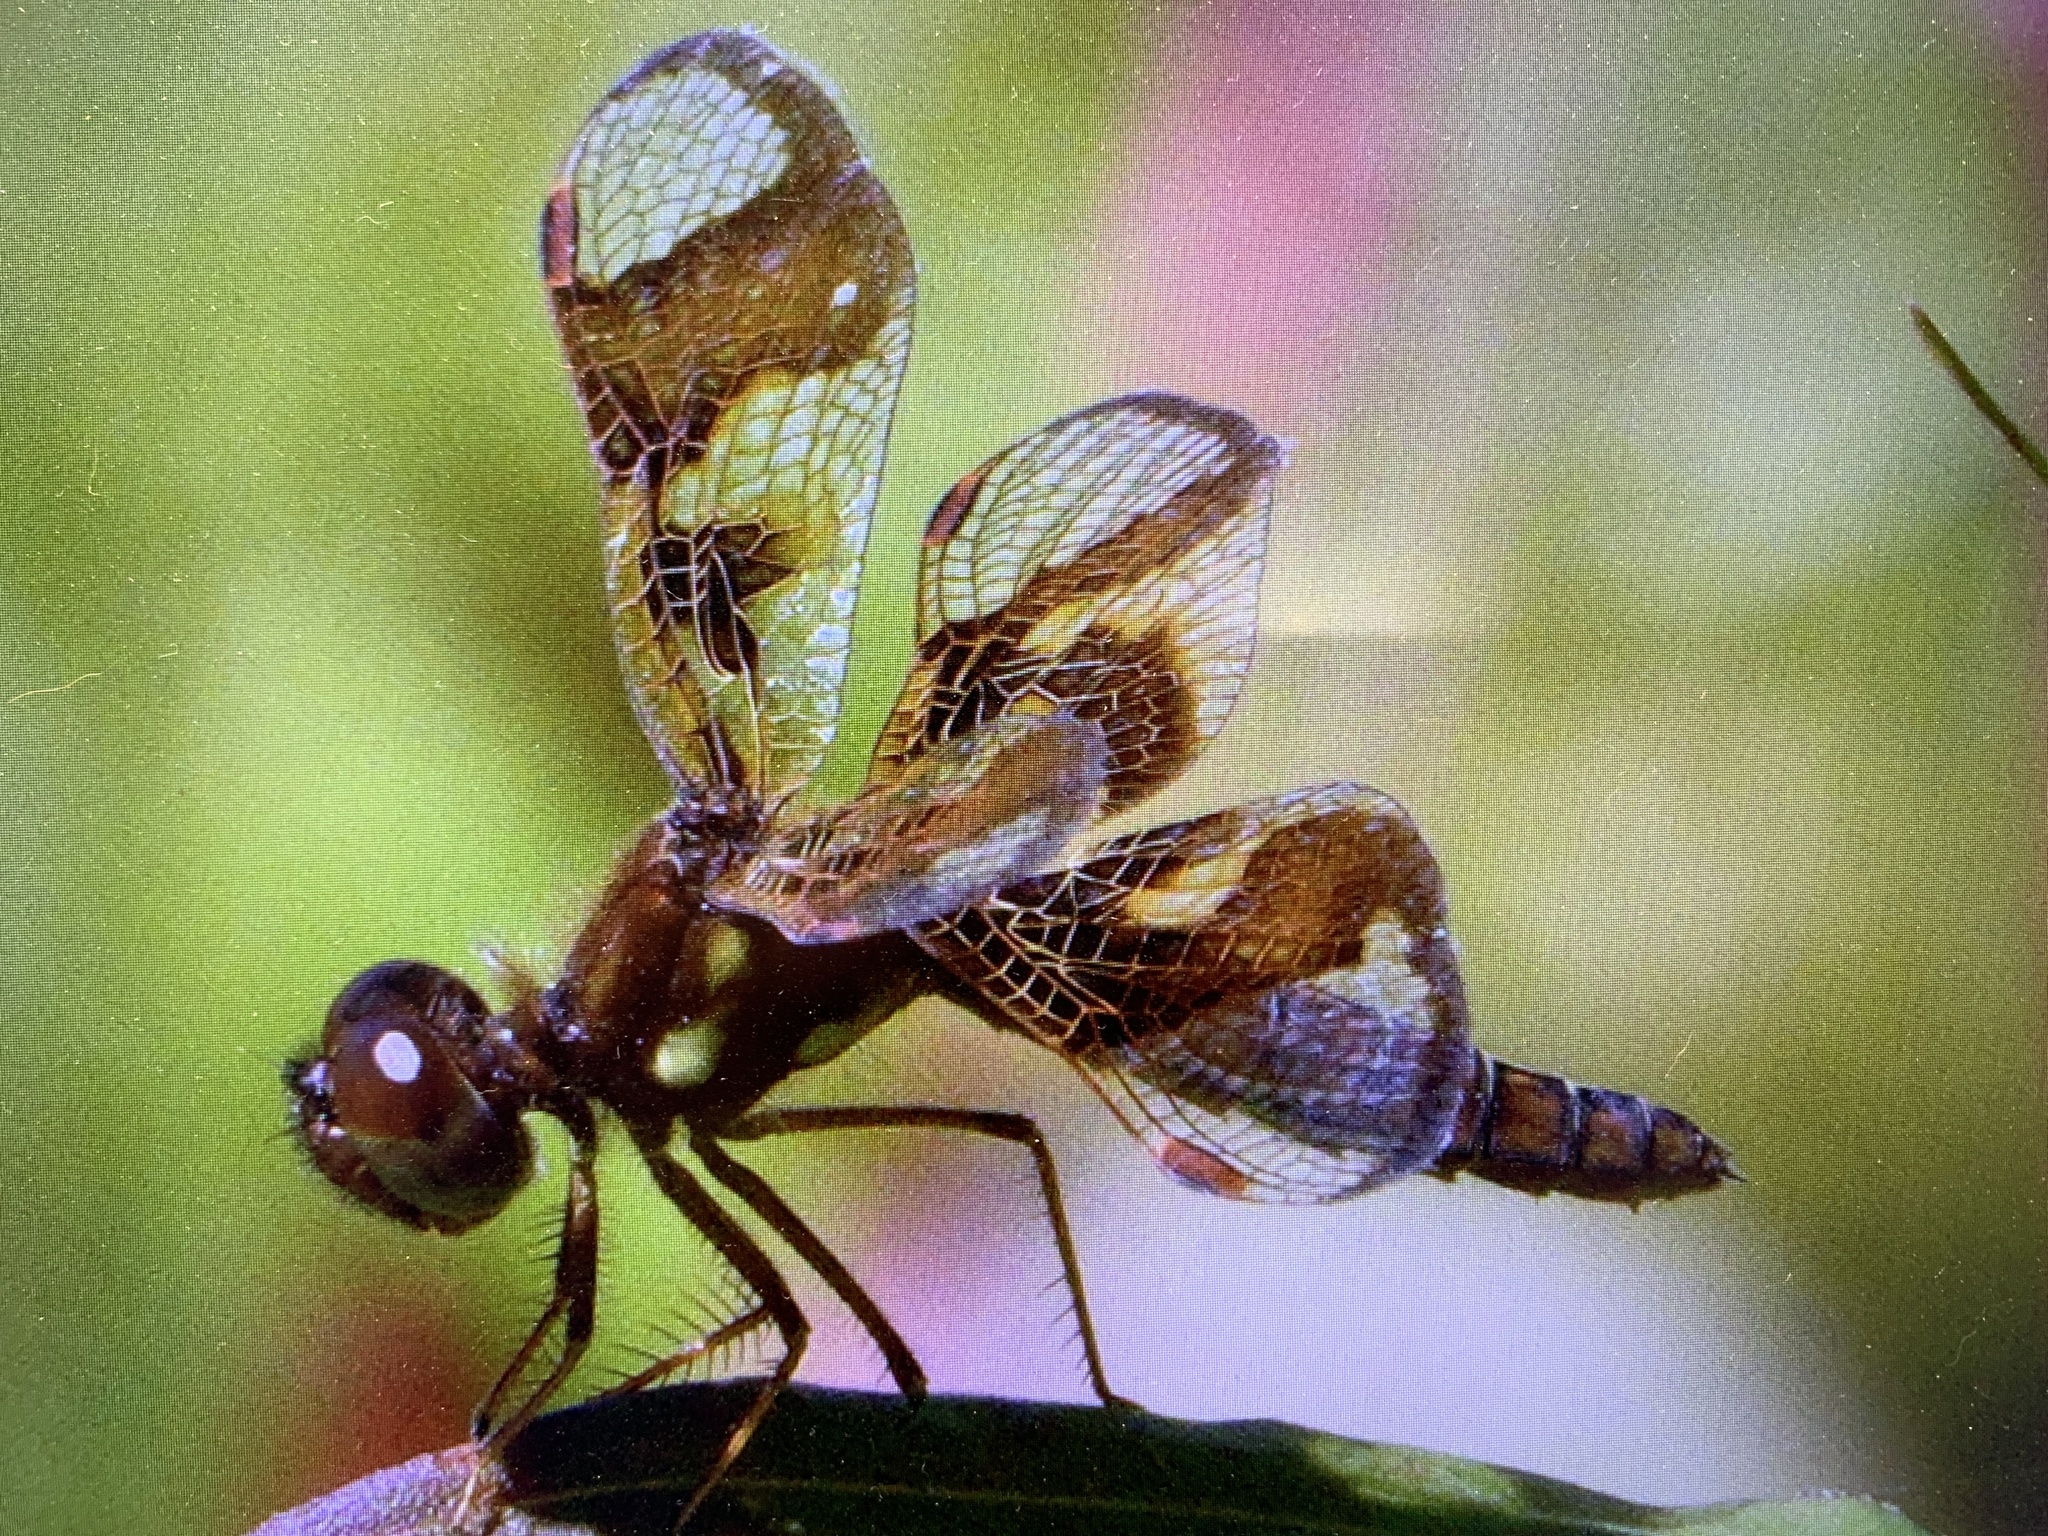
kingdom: Animalia
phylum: Arthropoda
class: Insecta
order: Odonata
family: Libellulidae
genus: Perithemis
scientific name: Perithemis tenera
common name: Eastern amberwing
